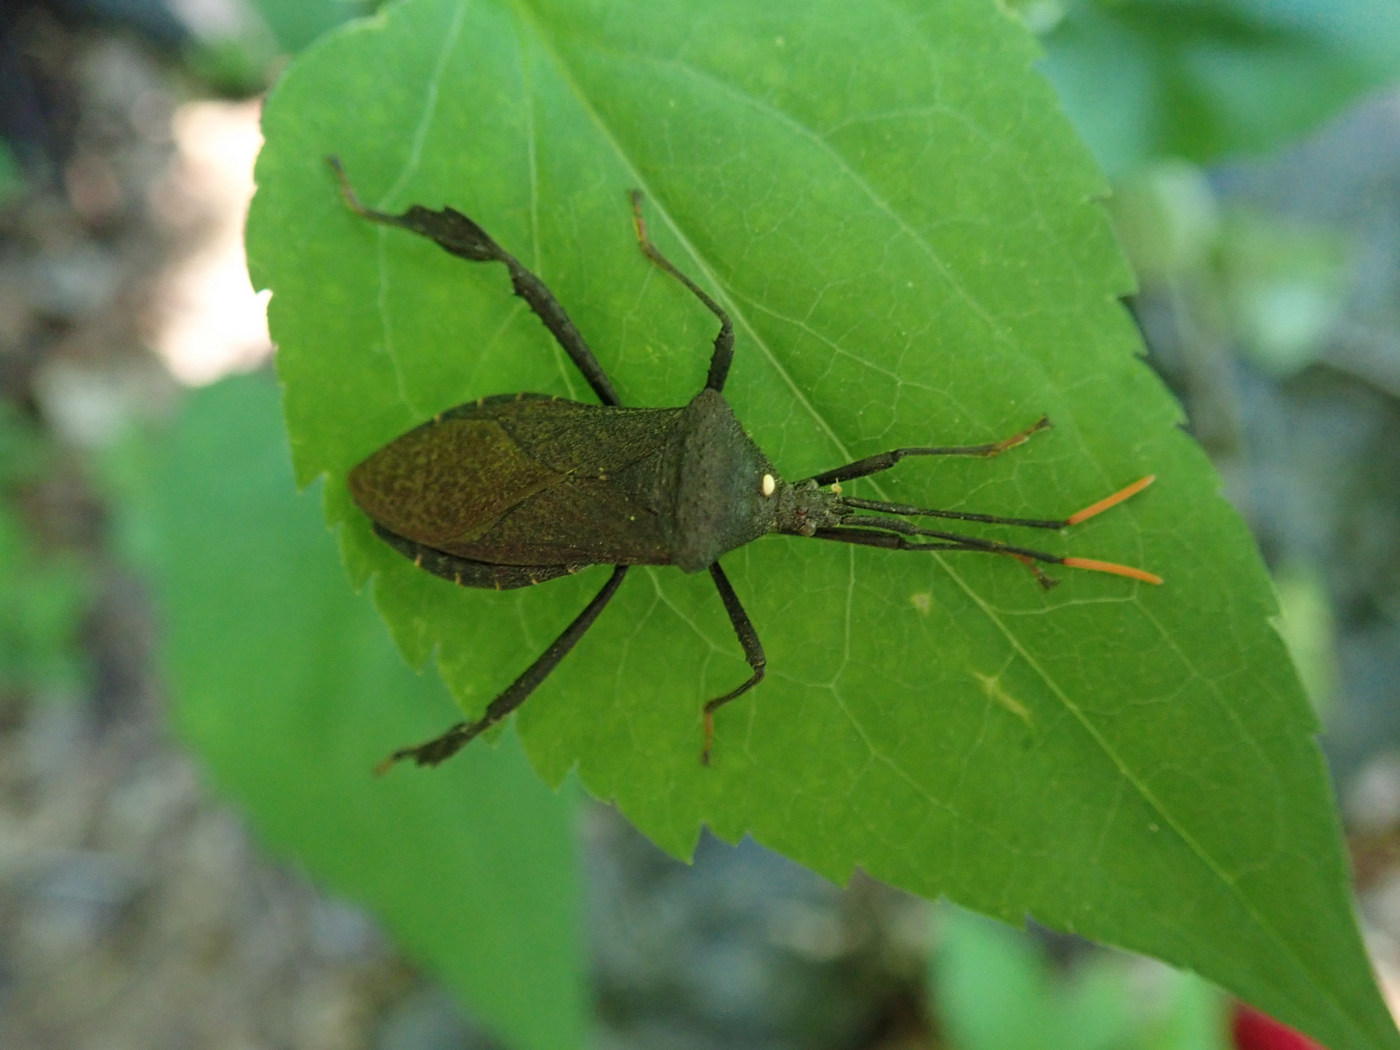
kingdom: Animalia
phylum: Arthropoda
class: Insecta
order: Hemiptera
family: Coreidae
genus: Acanthocephala
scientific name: Acanthocephala terminalis
